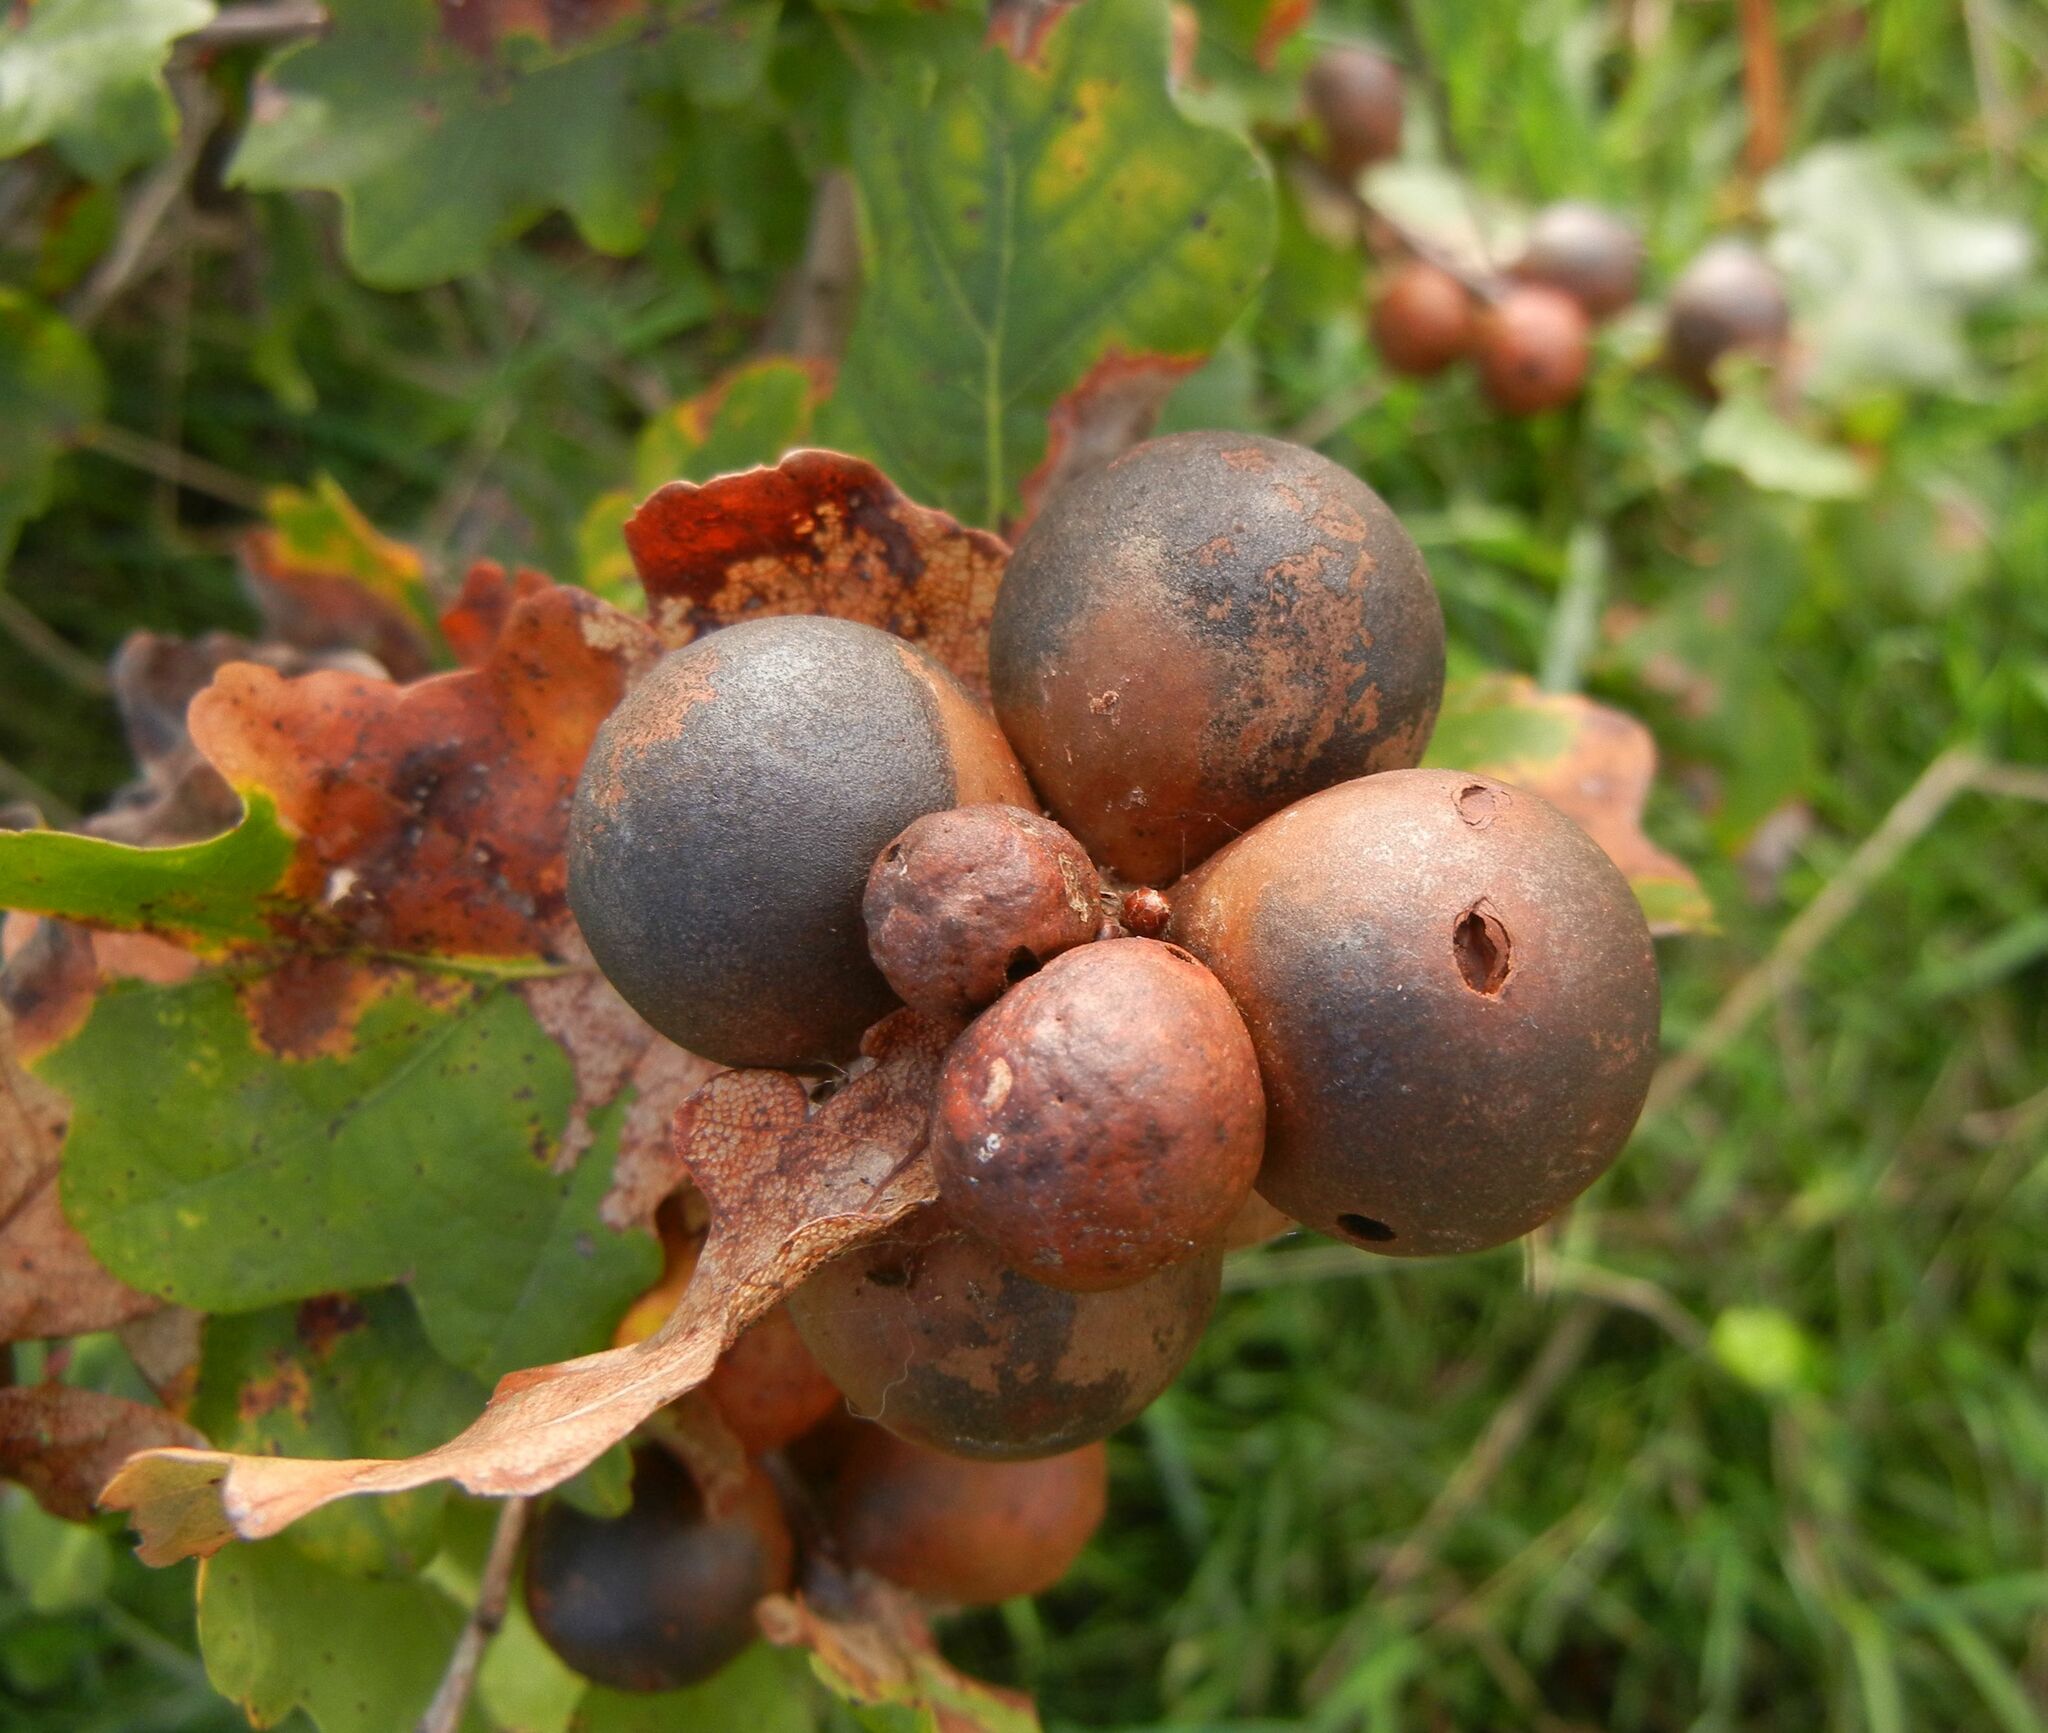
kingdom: Animalia
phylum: Arthropoda
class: Insecta
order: Hymenoptera
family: Cynipidae
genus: Andricus
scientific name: Andricus kollari
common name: Marble gall
